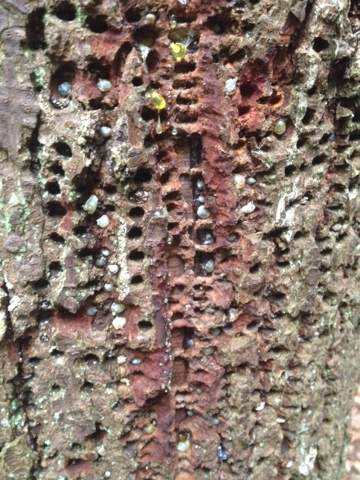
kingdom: Animalia
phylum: Chordata
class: Aves
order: Piciformes
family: Picidae
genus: Sphyrapicus
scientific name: Sphyrapicus ruber
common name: Red-breasted sapsucker
